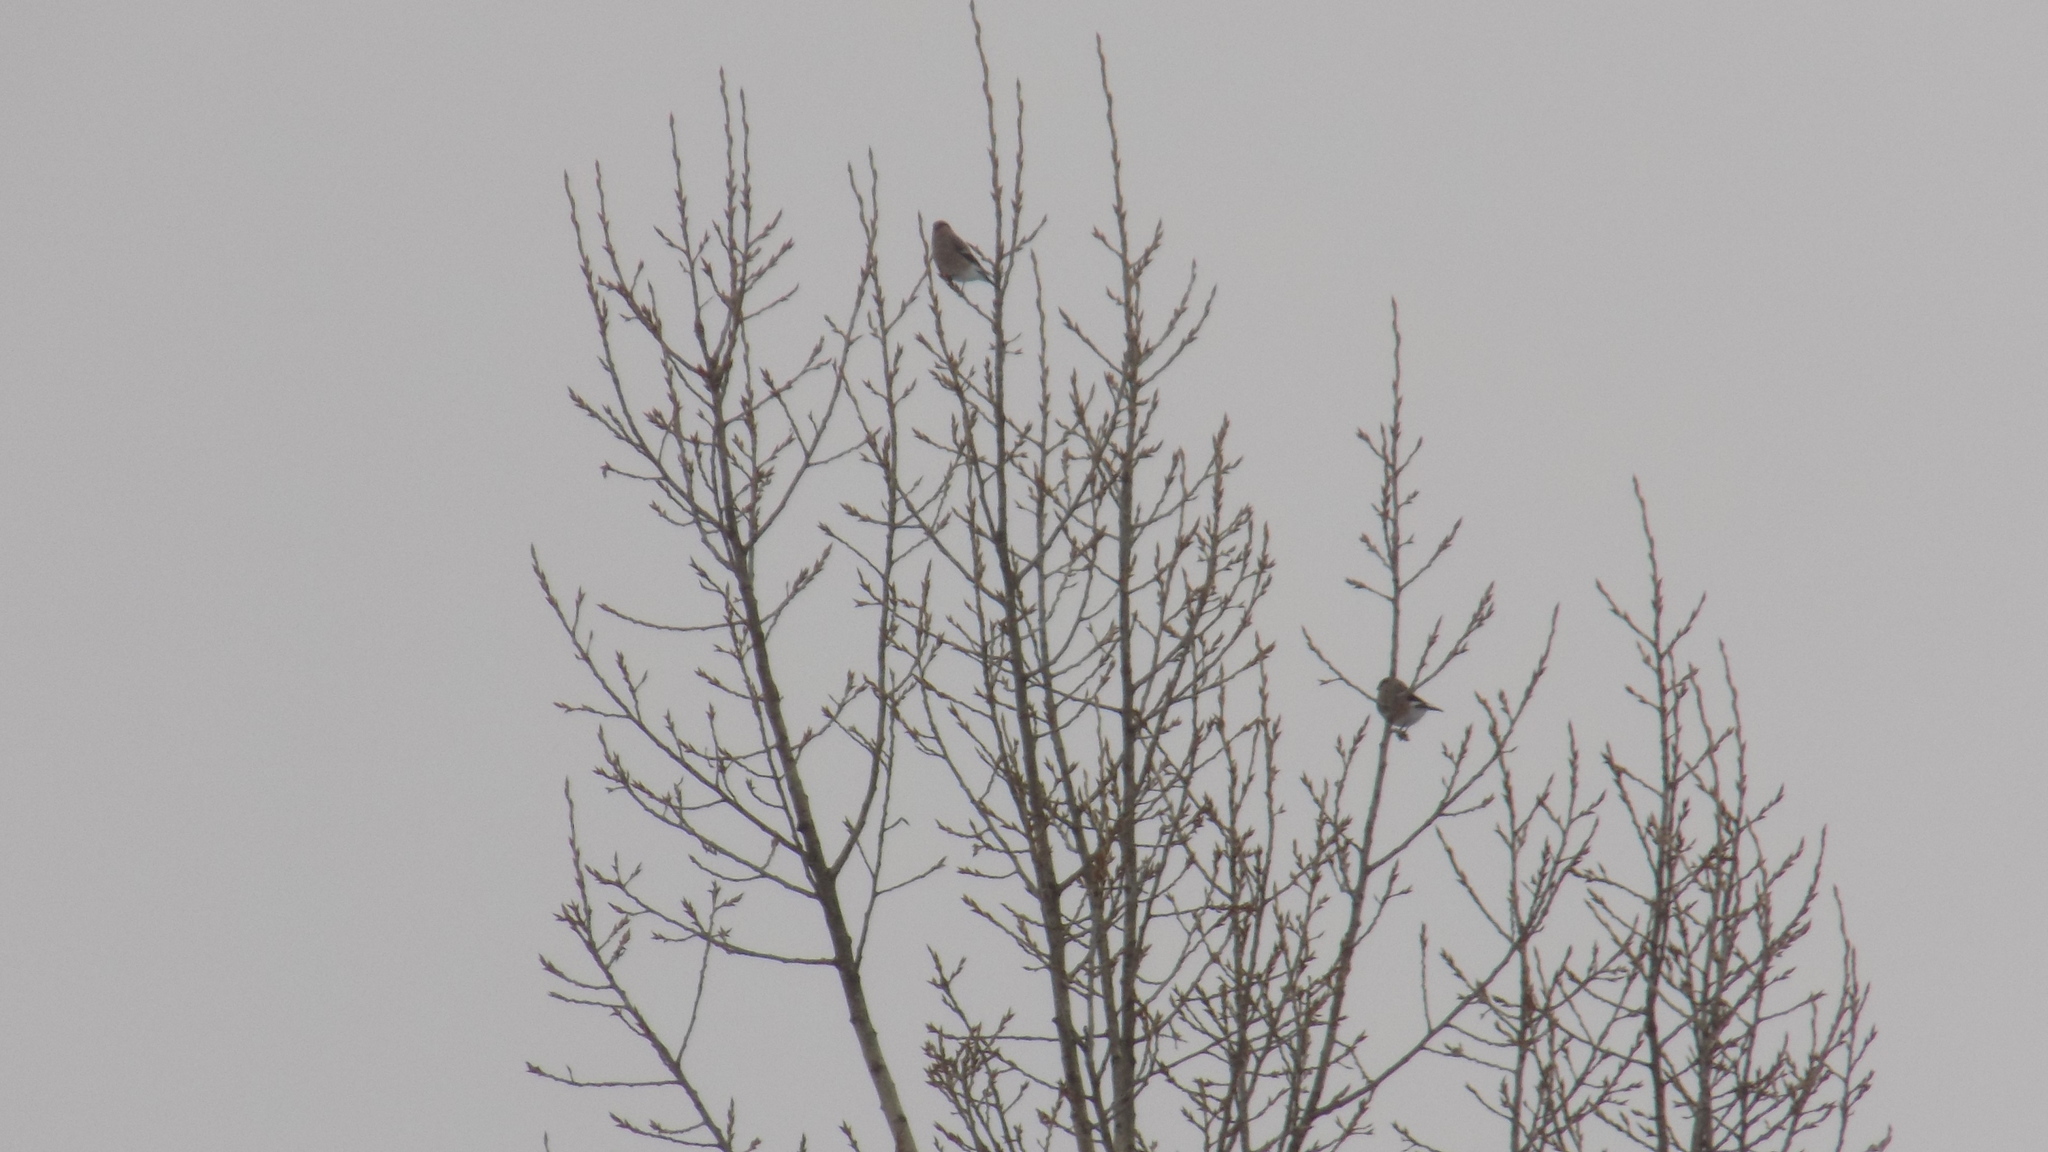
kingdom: Animalia
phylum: Chordata
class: Aves
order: Passeriformes
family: Fringillidae
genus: Pyrrhula
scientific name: Pyrrhula pyrrhula
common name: Eurasian bullfinch
